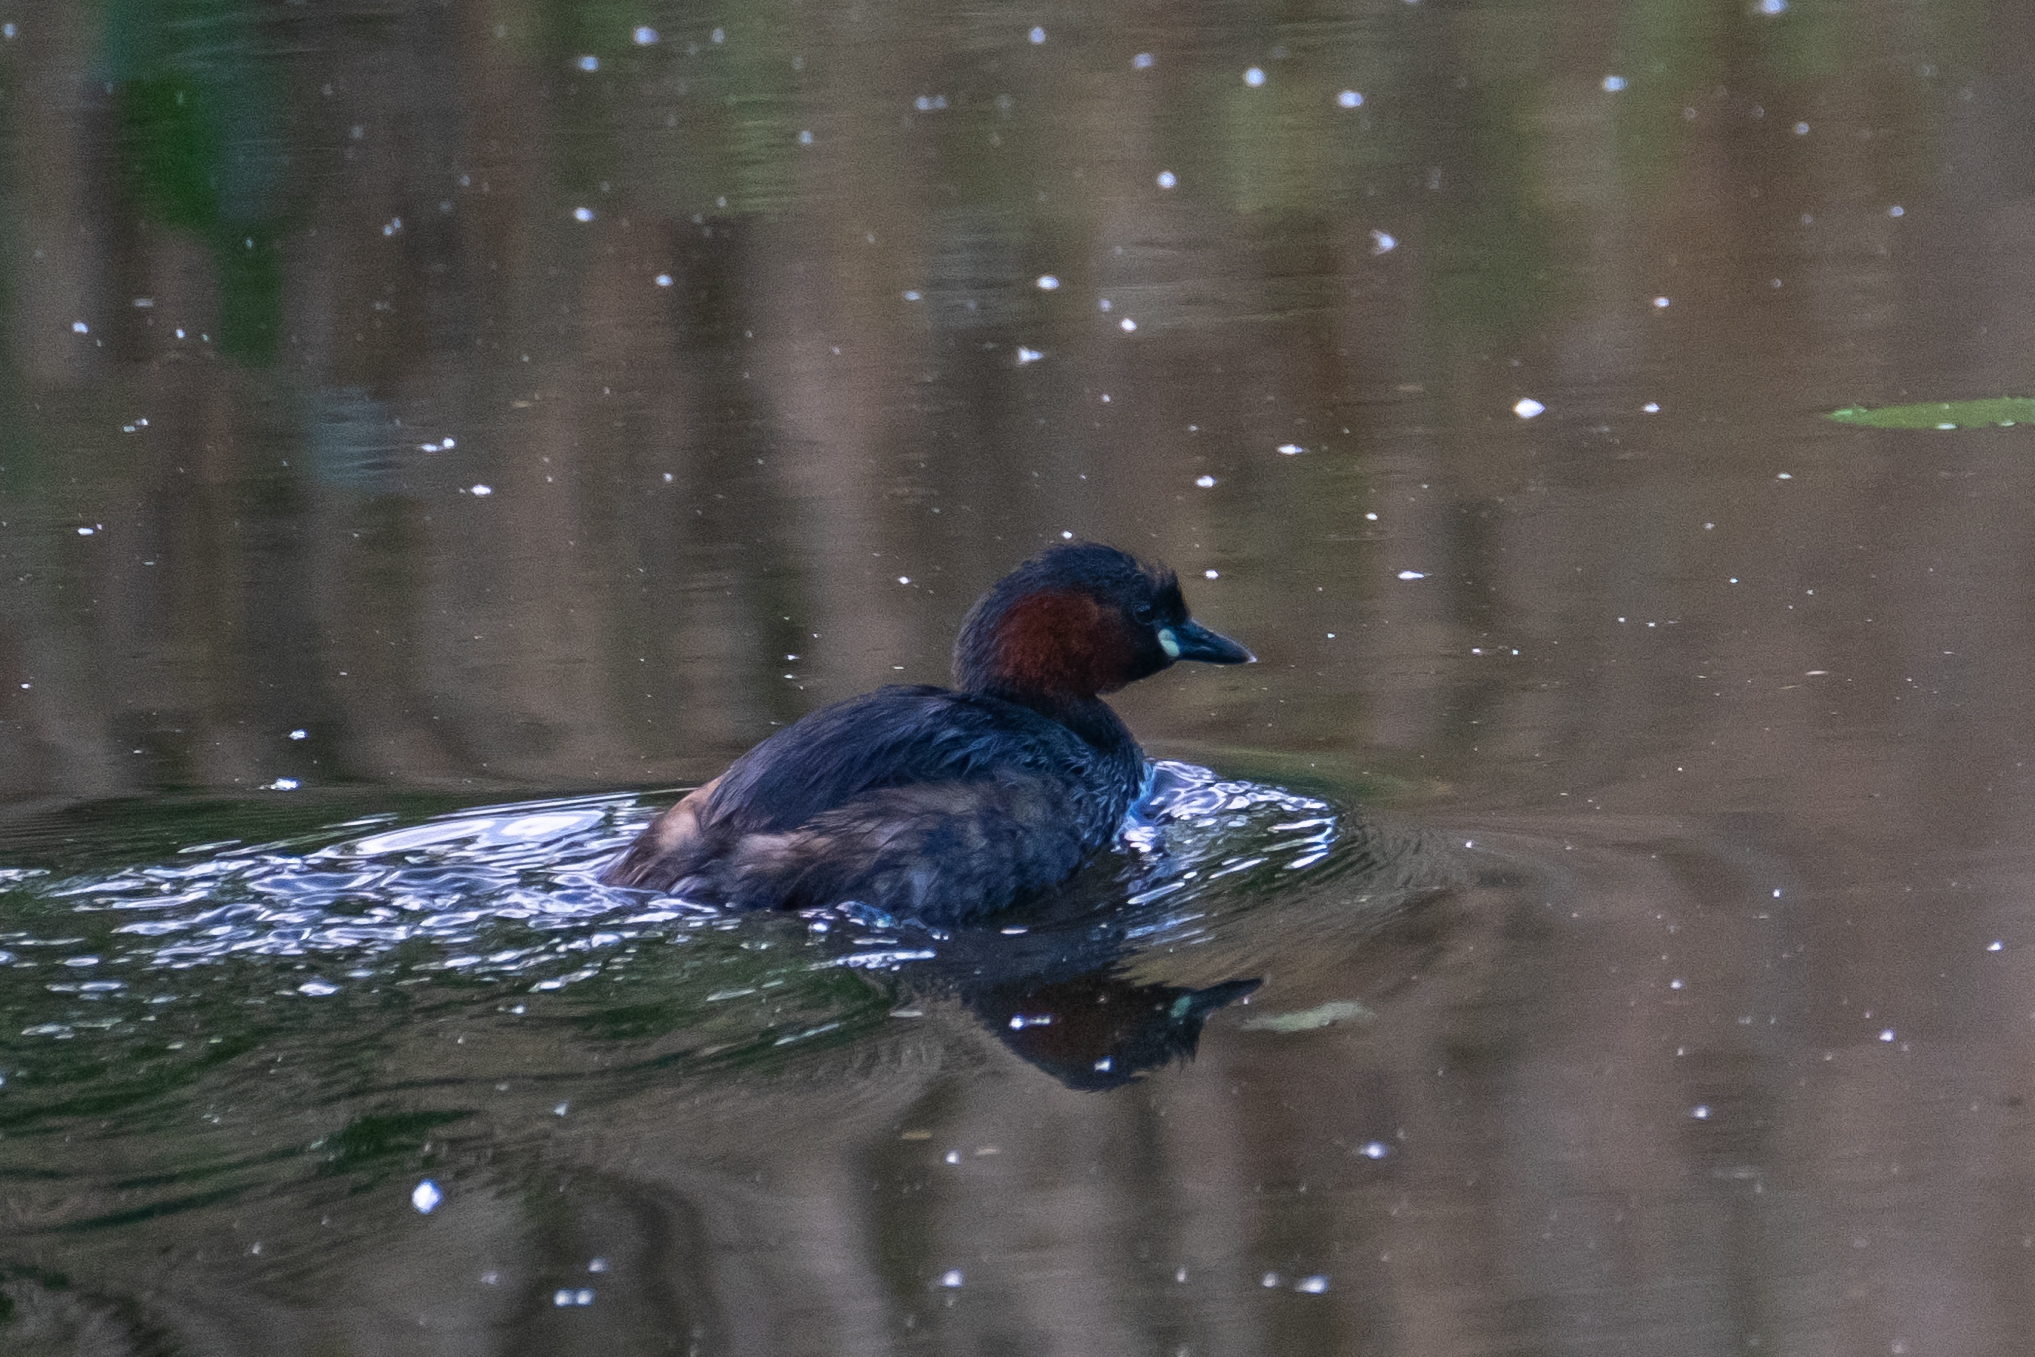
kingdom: Animalia
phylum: Chordata
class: Aves
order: Podicipediformes
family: Podicipedidae
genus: Tachybaptus
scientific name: Tachybaptus ruficollis
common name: Little grebe
